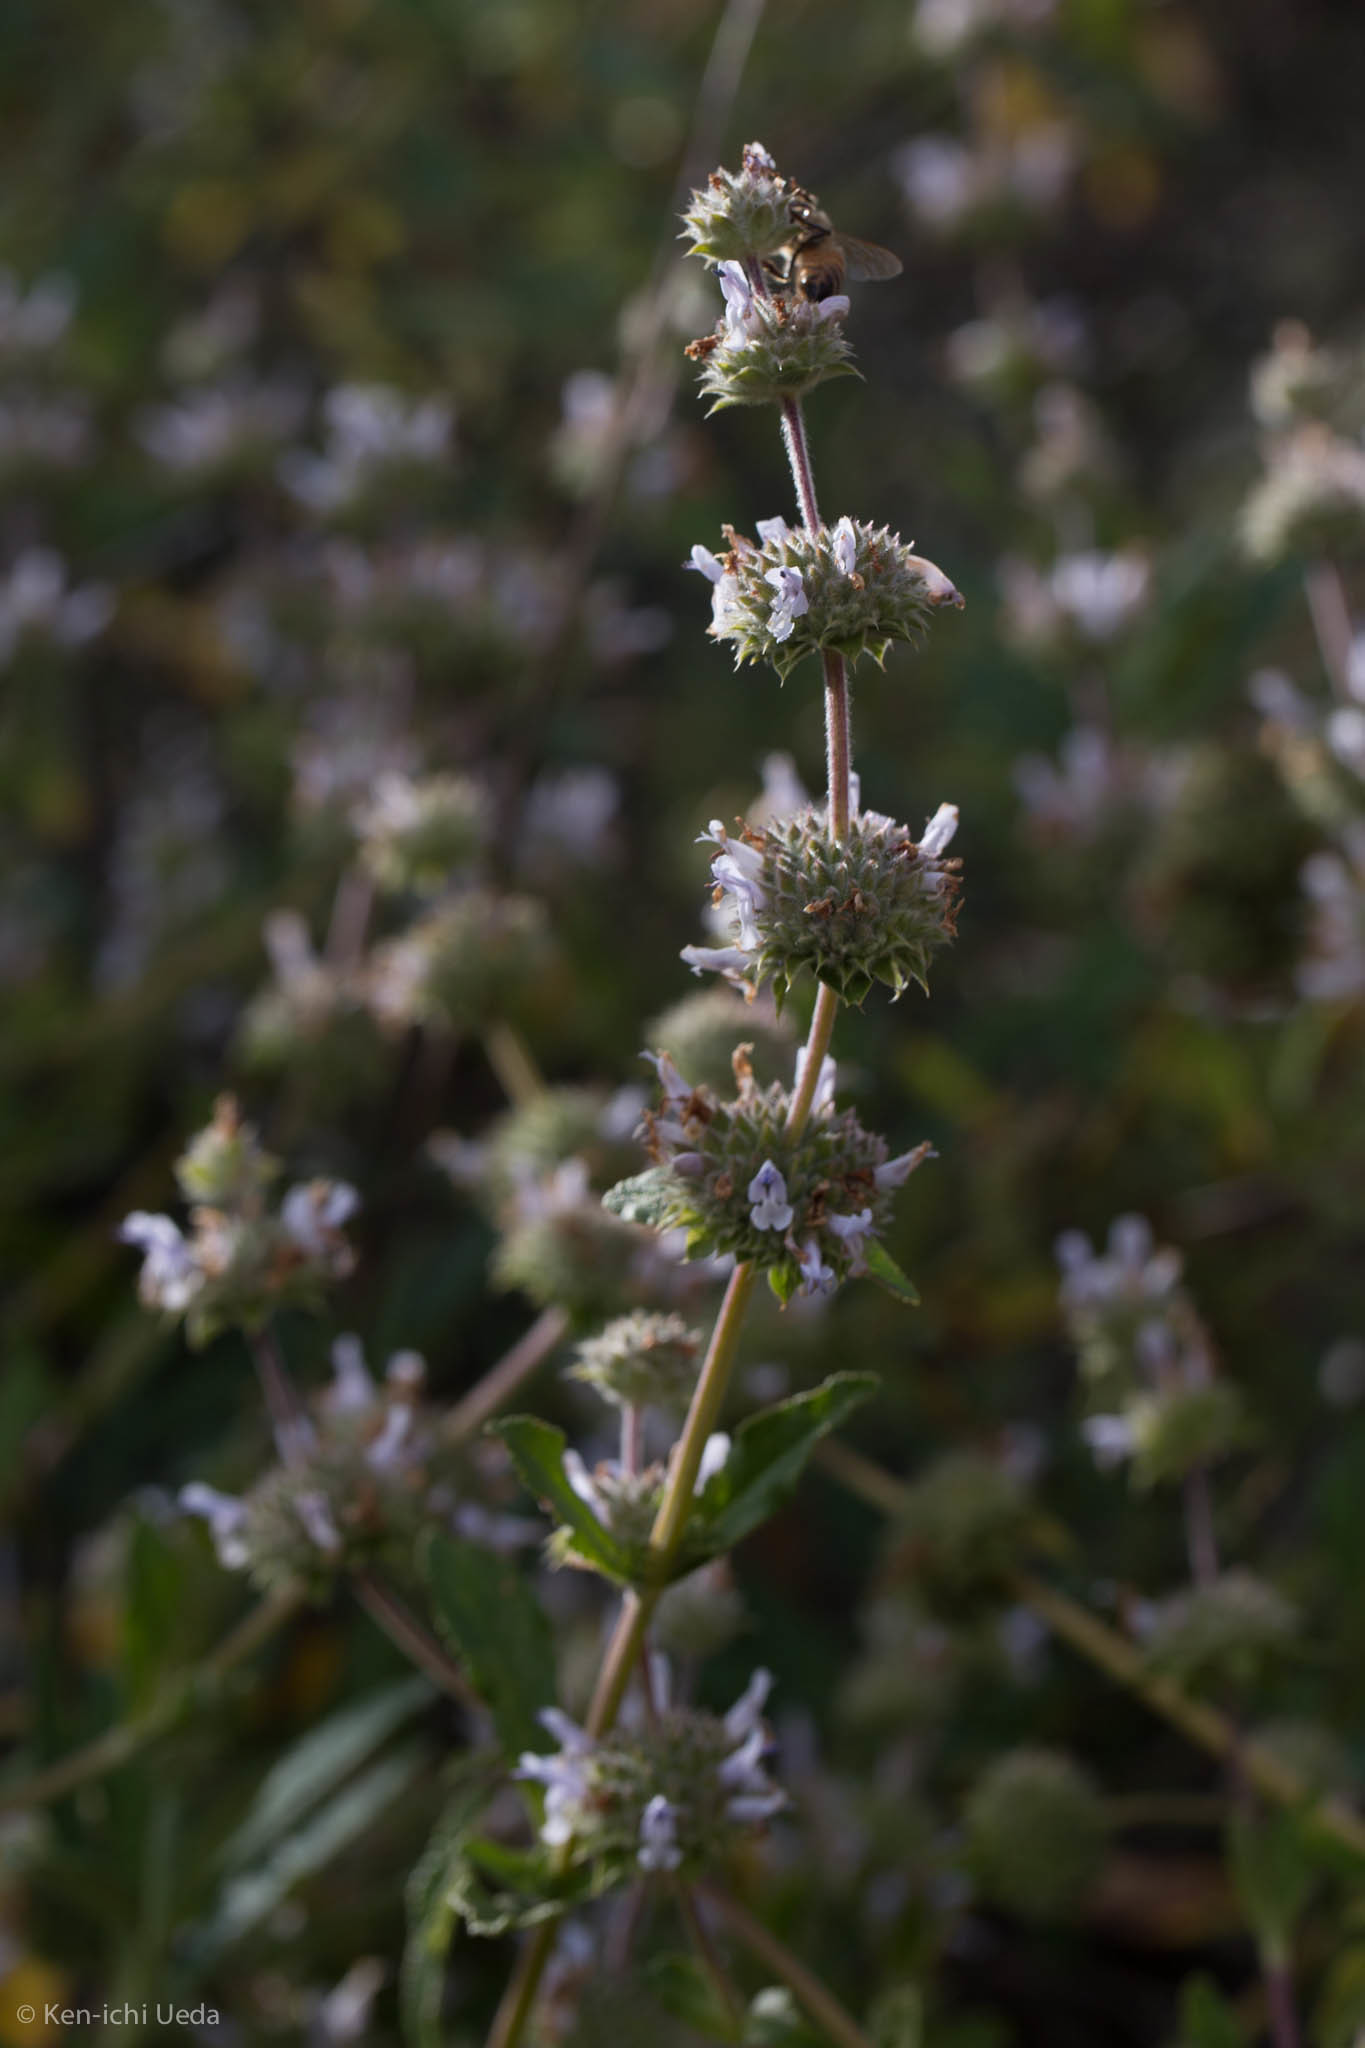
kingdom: Plantae
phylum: Tracheophyta
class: Magnoliopsida
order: Lamiales
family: Lamiaceae
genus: Salvia
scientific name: Salvia mellifera
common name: Black sage
